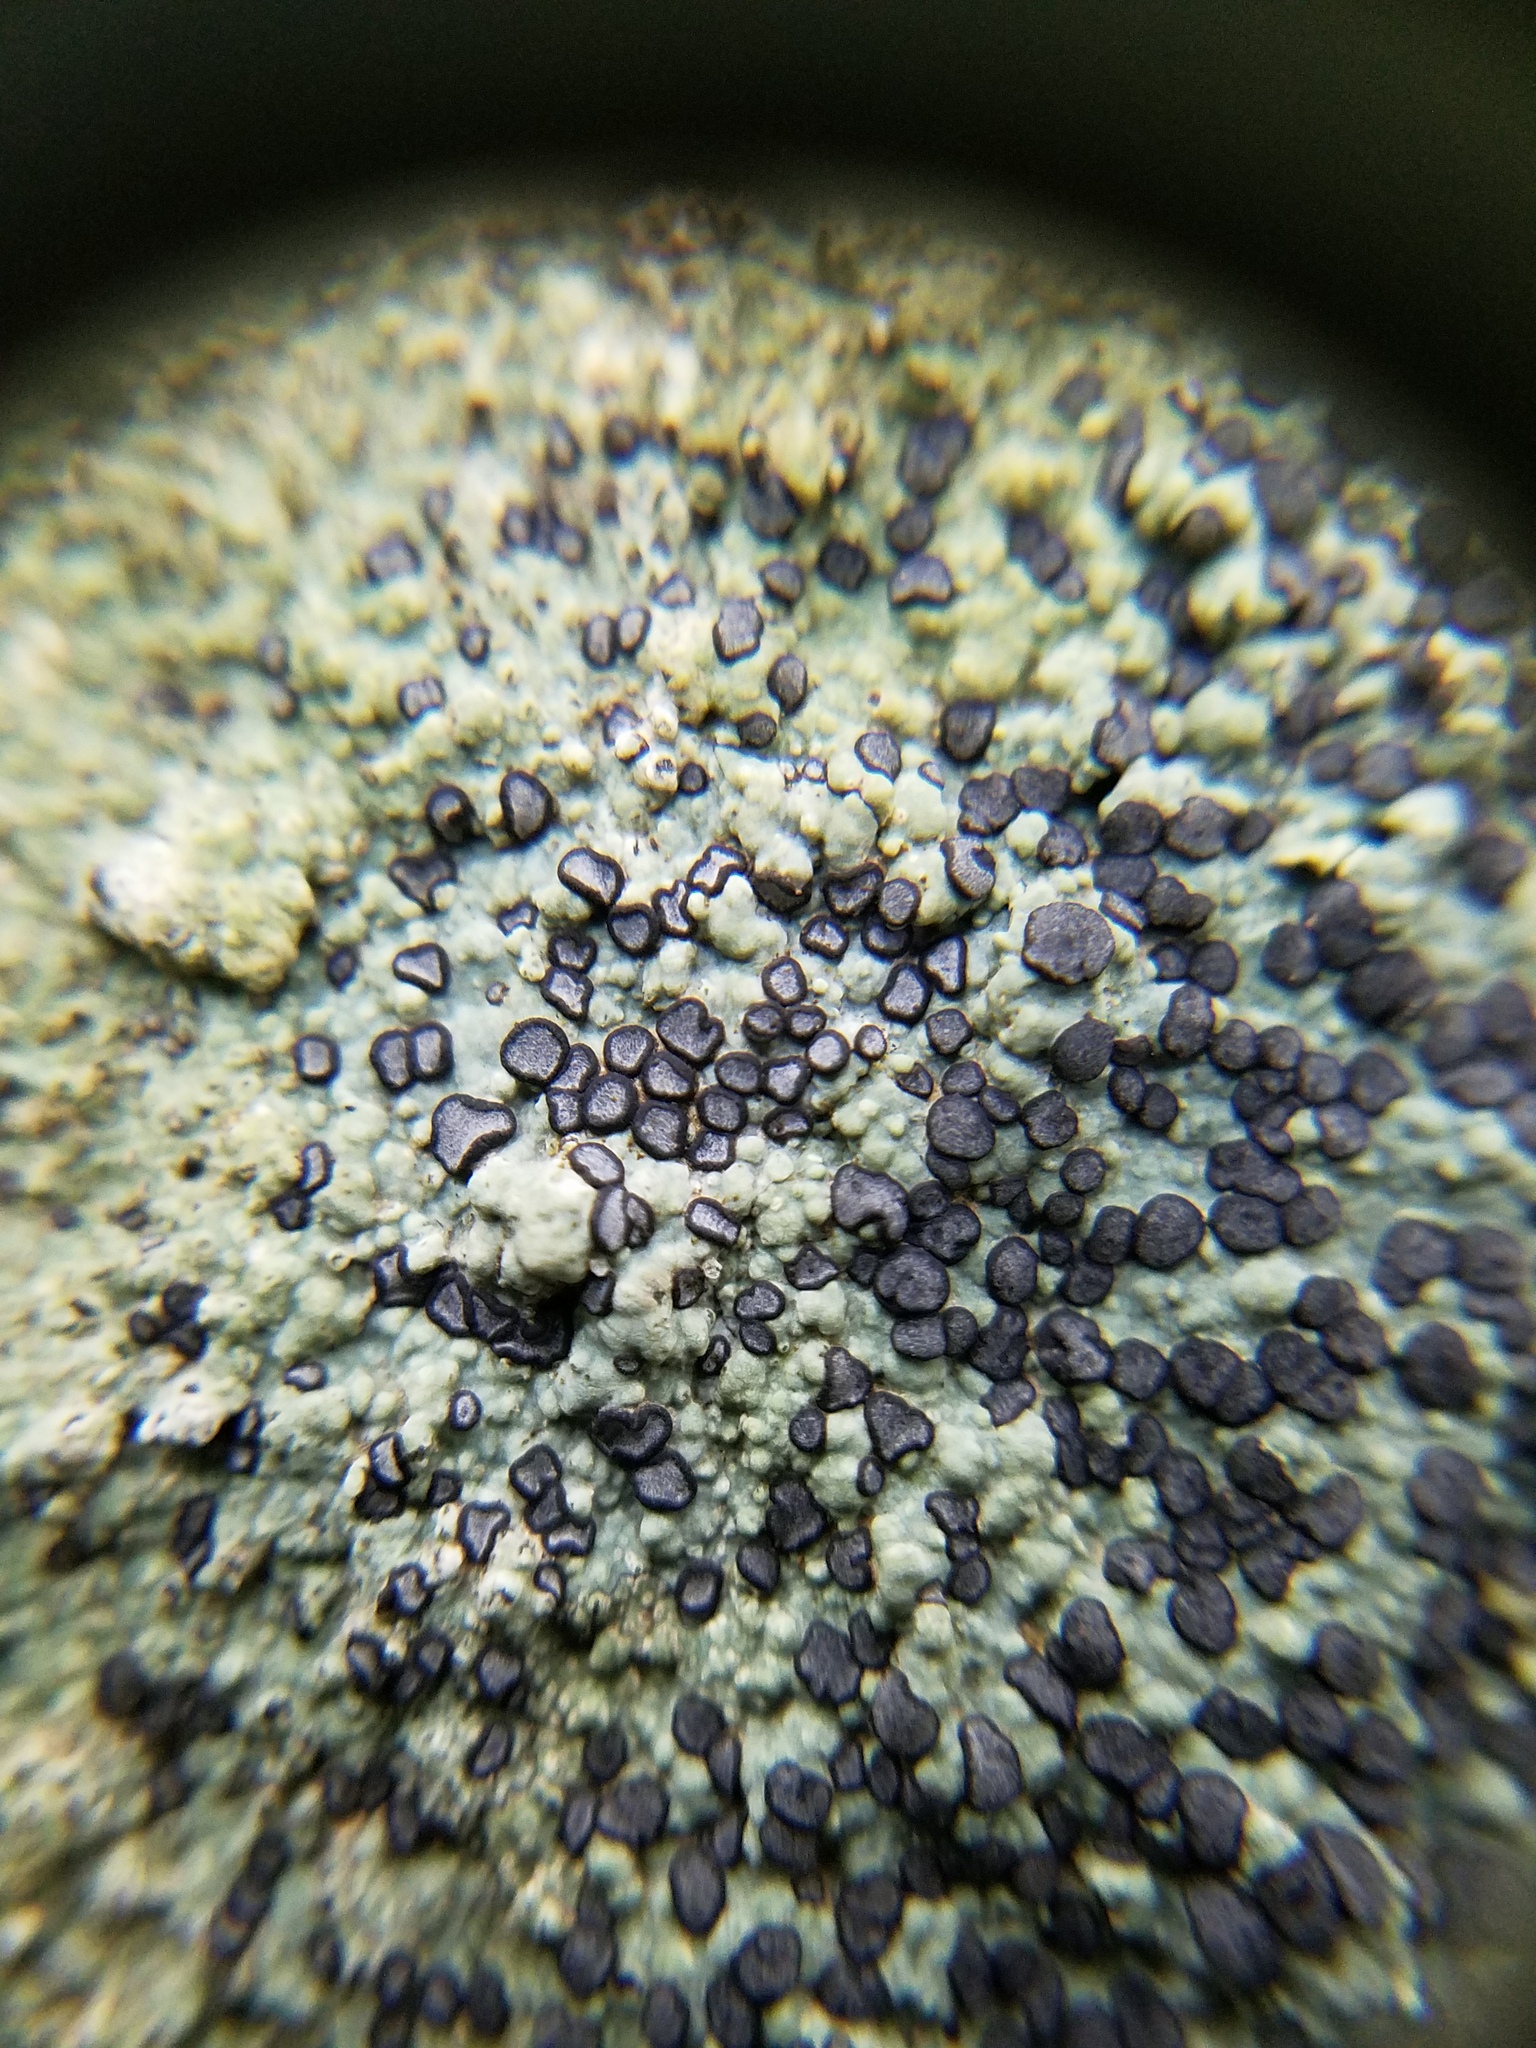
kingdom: Fungi
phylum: Ascomycota
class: Lecanoromycetes
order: Lecideales
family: Lecideaceae
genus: Porpidia
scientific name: Porpidia albocaerulescens
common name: Smokey-eyed boulder lichen
